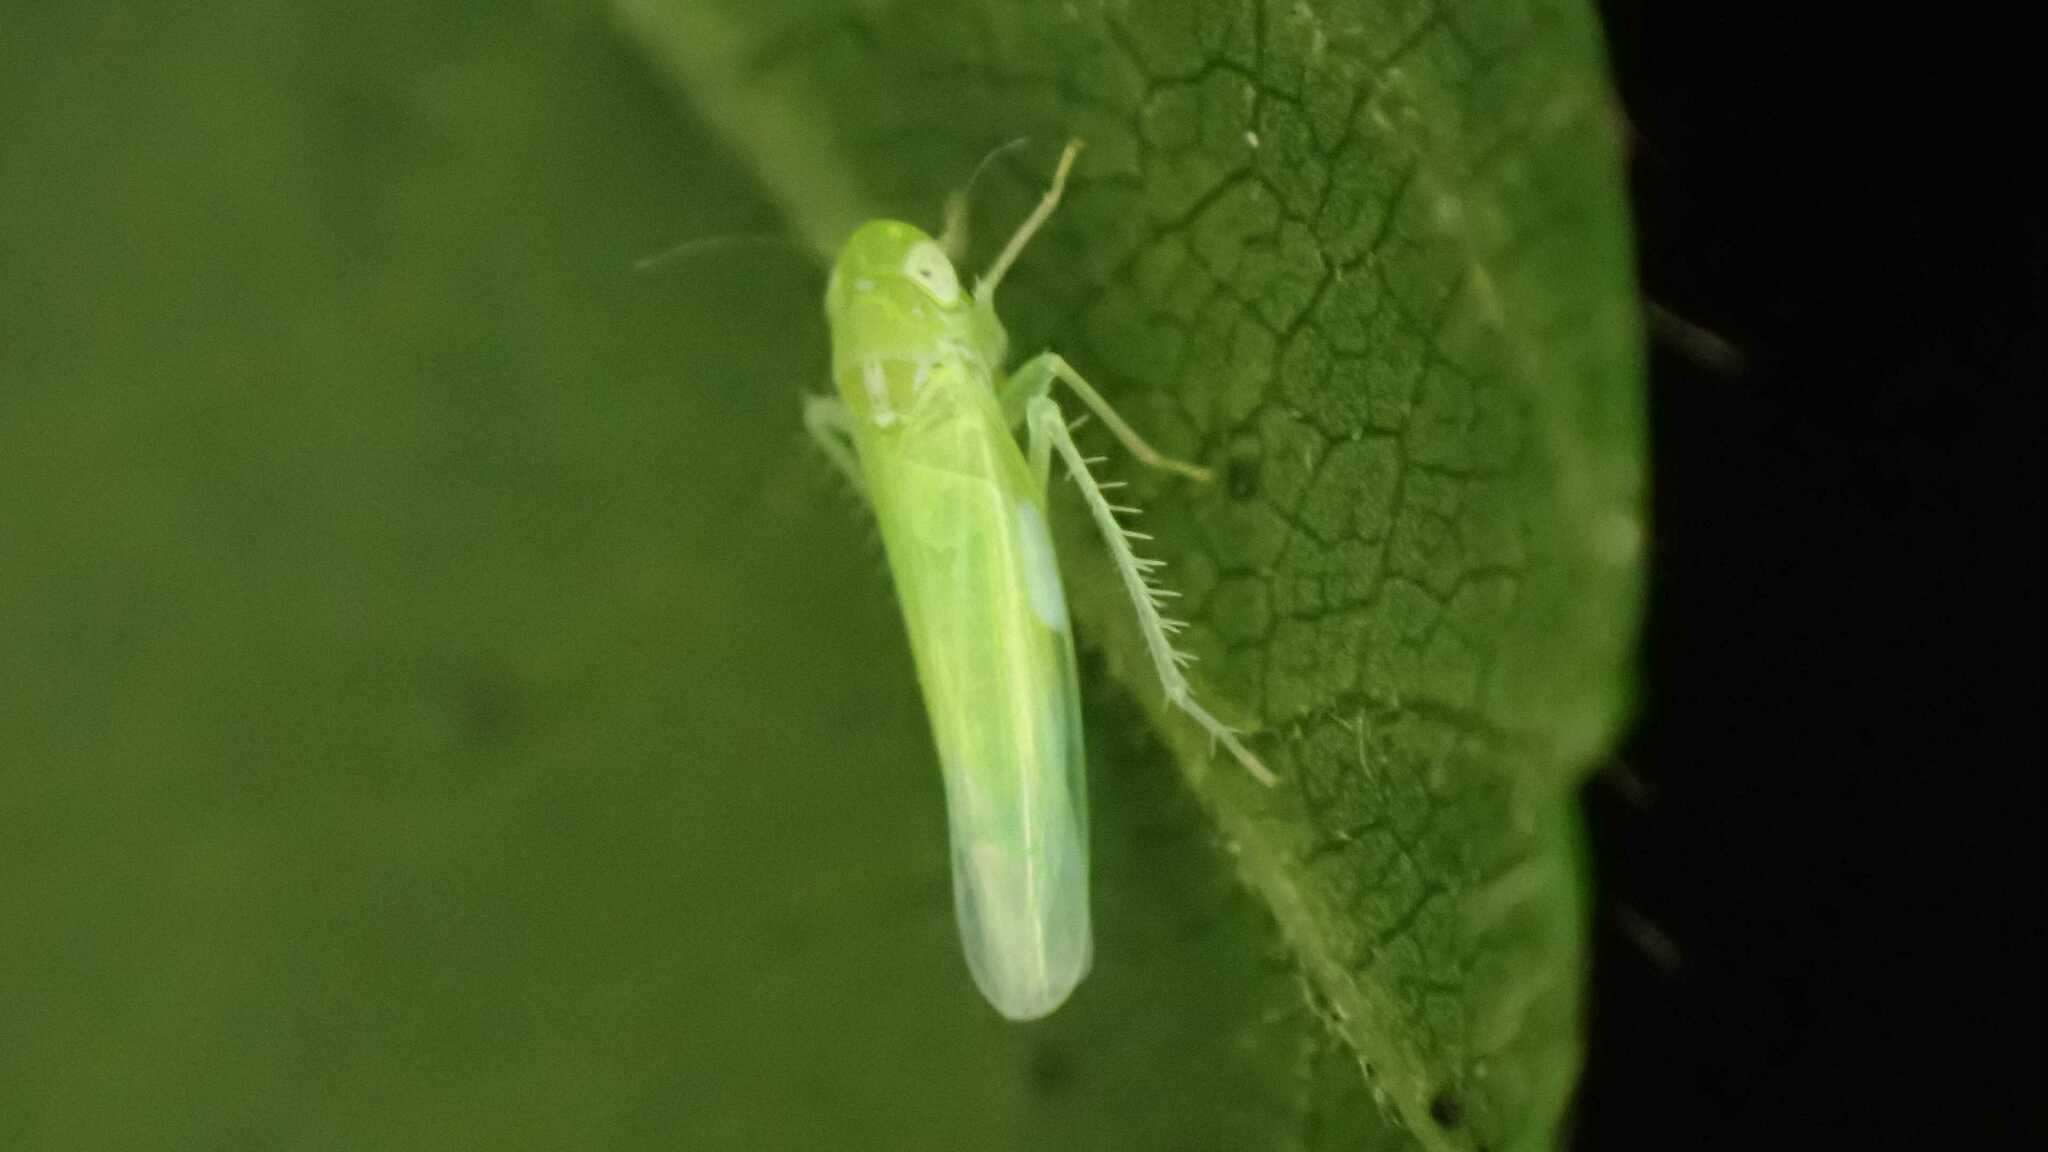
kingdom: Animalia
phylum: Arthropoda
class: Insecta
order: Hemiptera
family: Cicadellidae
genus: Hebata
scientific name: Hebata
